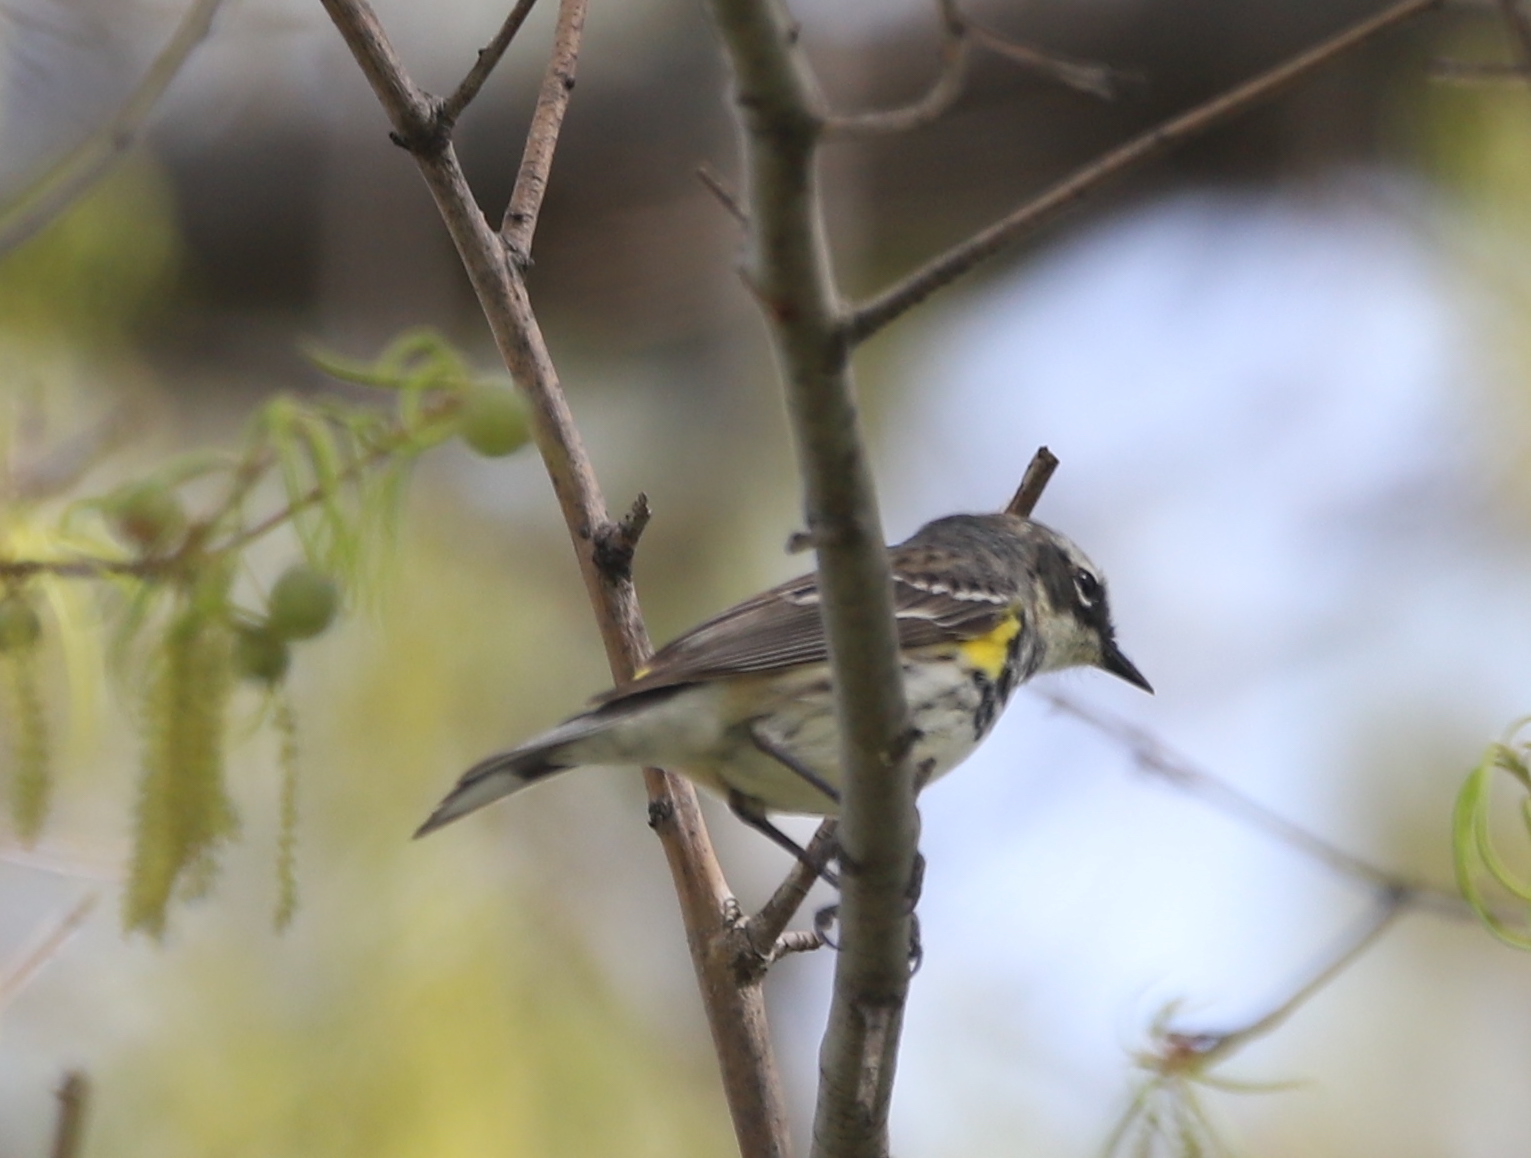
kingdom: Animalia
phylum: Chordata
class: Aves
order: Passeriformes
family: Parulidae
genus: Setophaga
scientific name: Setophaga coronata
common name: Myrtle warbler
